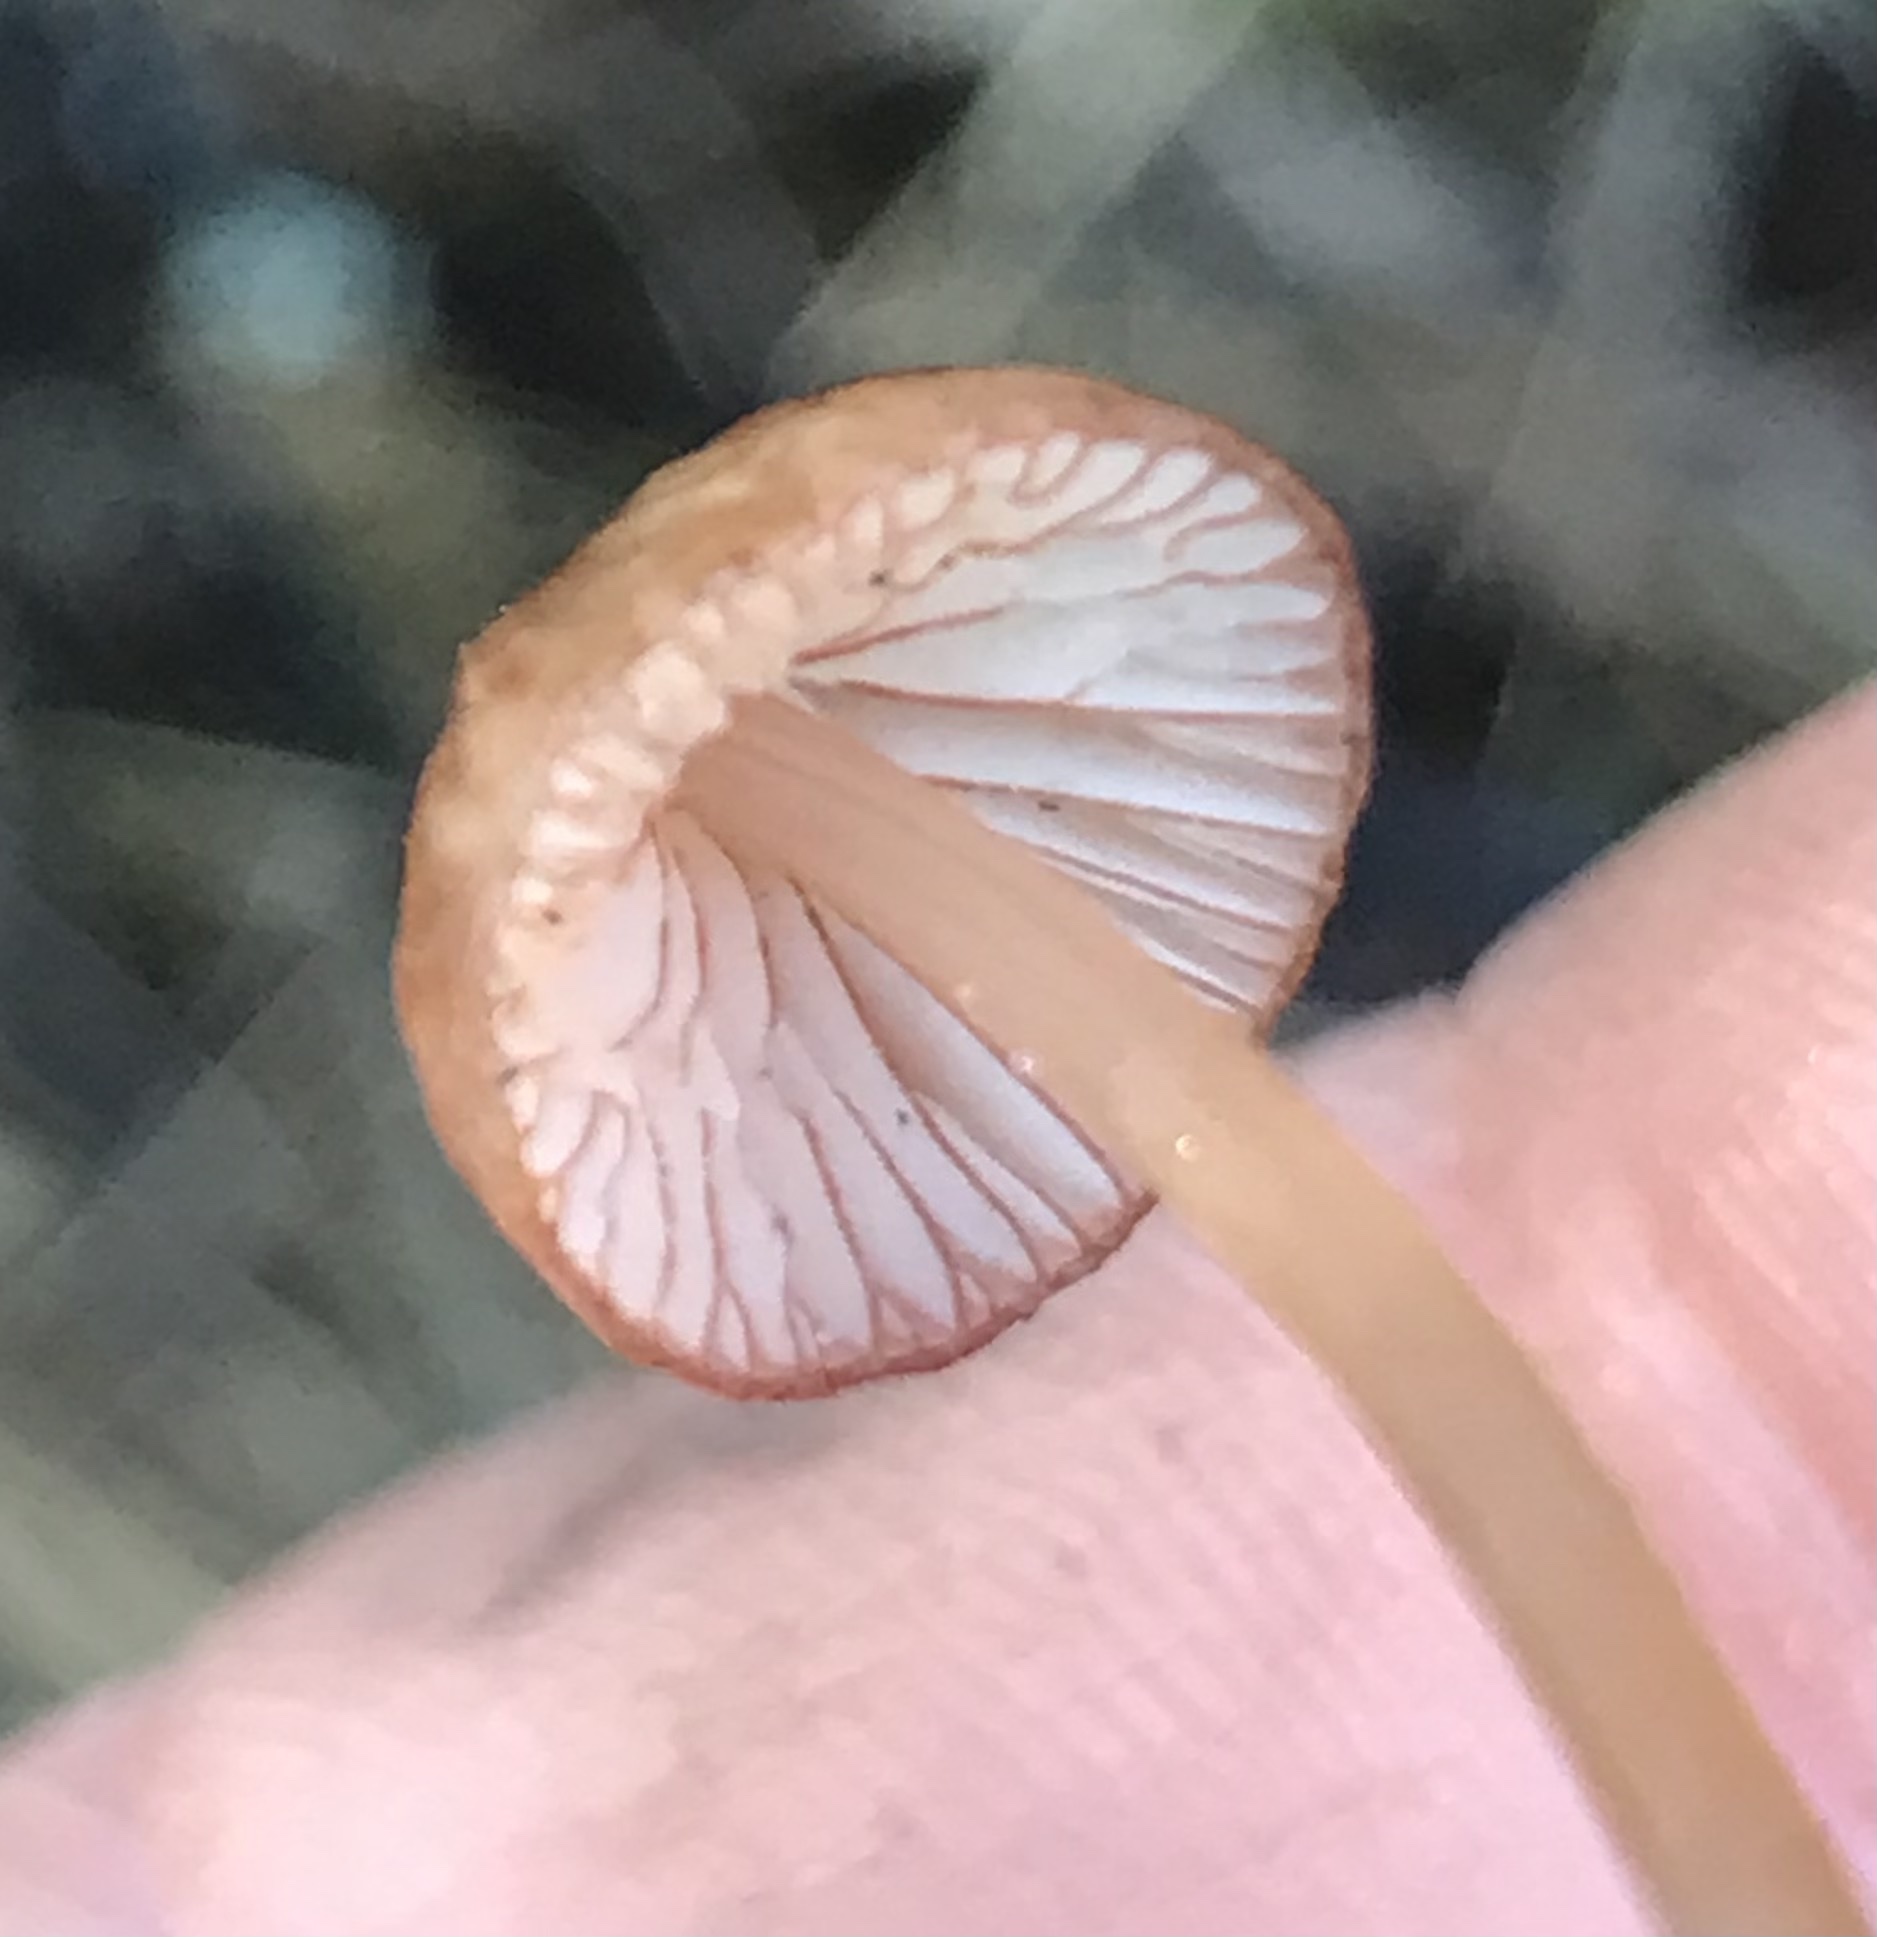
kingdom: Fungi
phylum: Basidiomycota
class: Agaricomycetes
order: Agaricales
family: Mycenaceae
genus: Mycena
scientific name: Mycena
